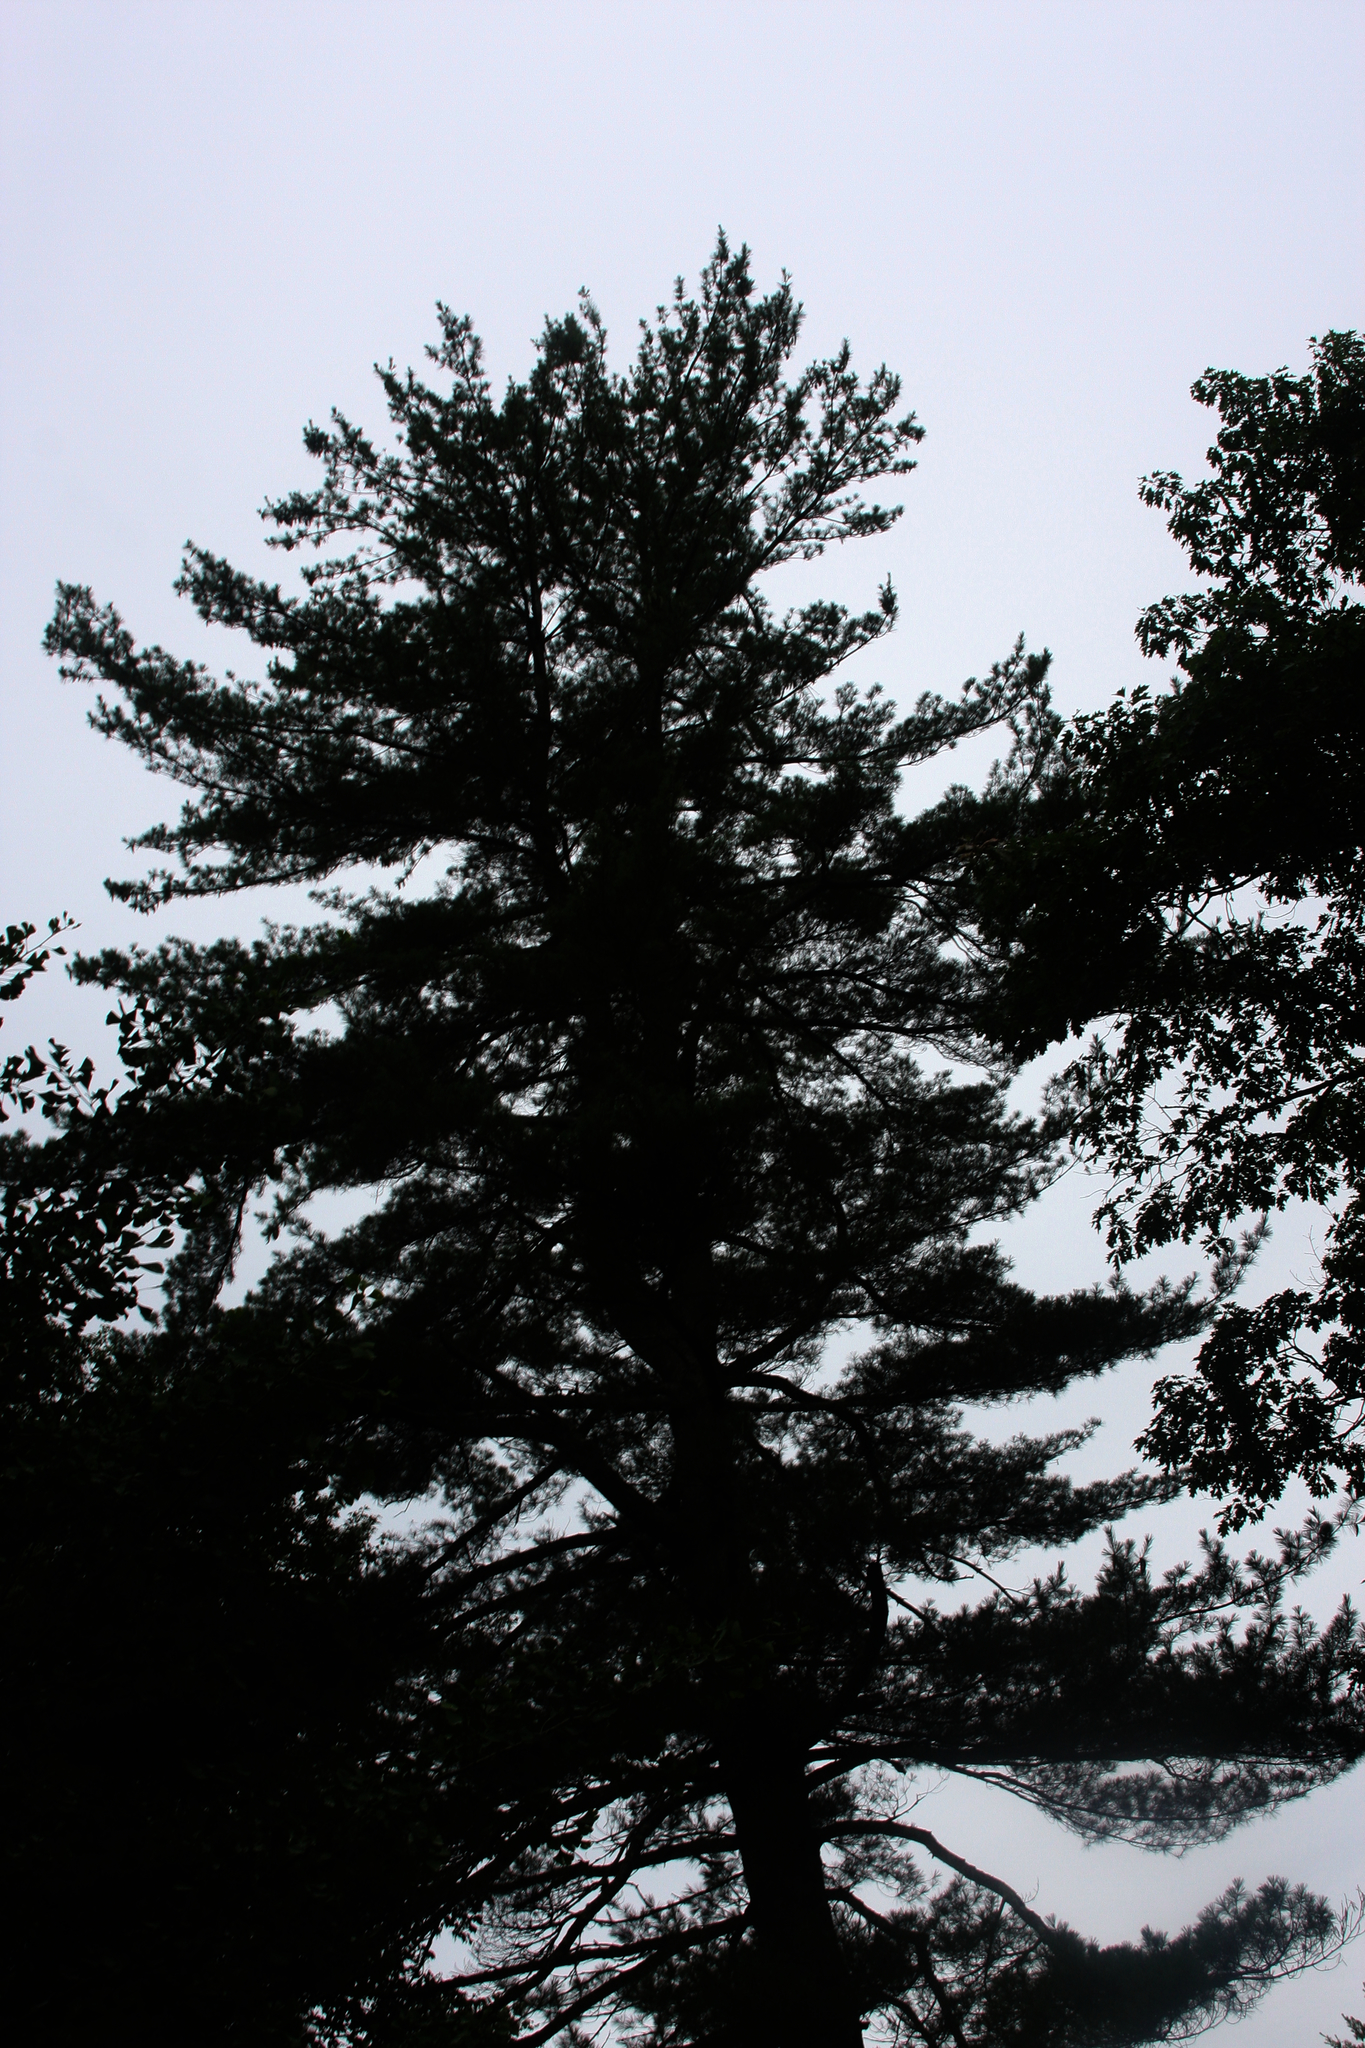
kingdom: Plantae
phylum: Tracheophyta
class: Pinopsida
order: Pinales
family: Pinaceae
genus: Pinus
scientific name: Pinus strobus
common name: Weymouth pine
